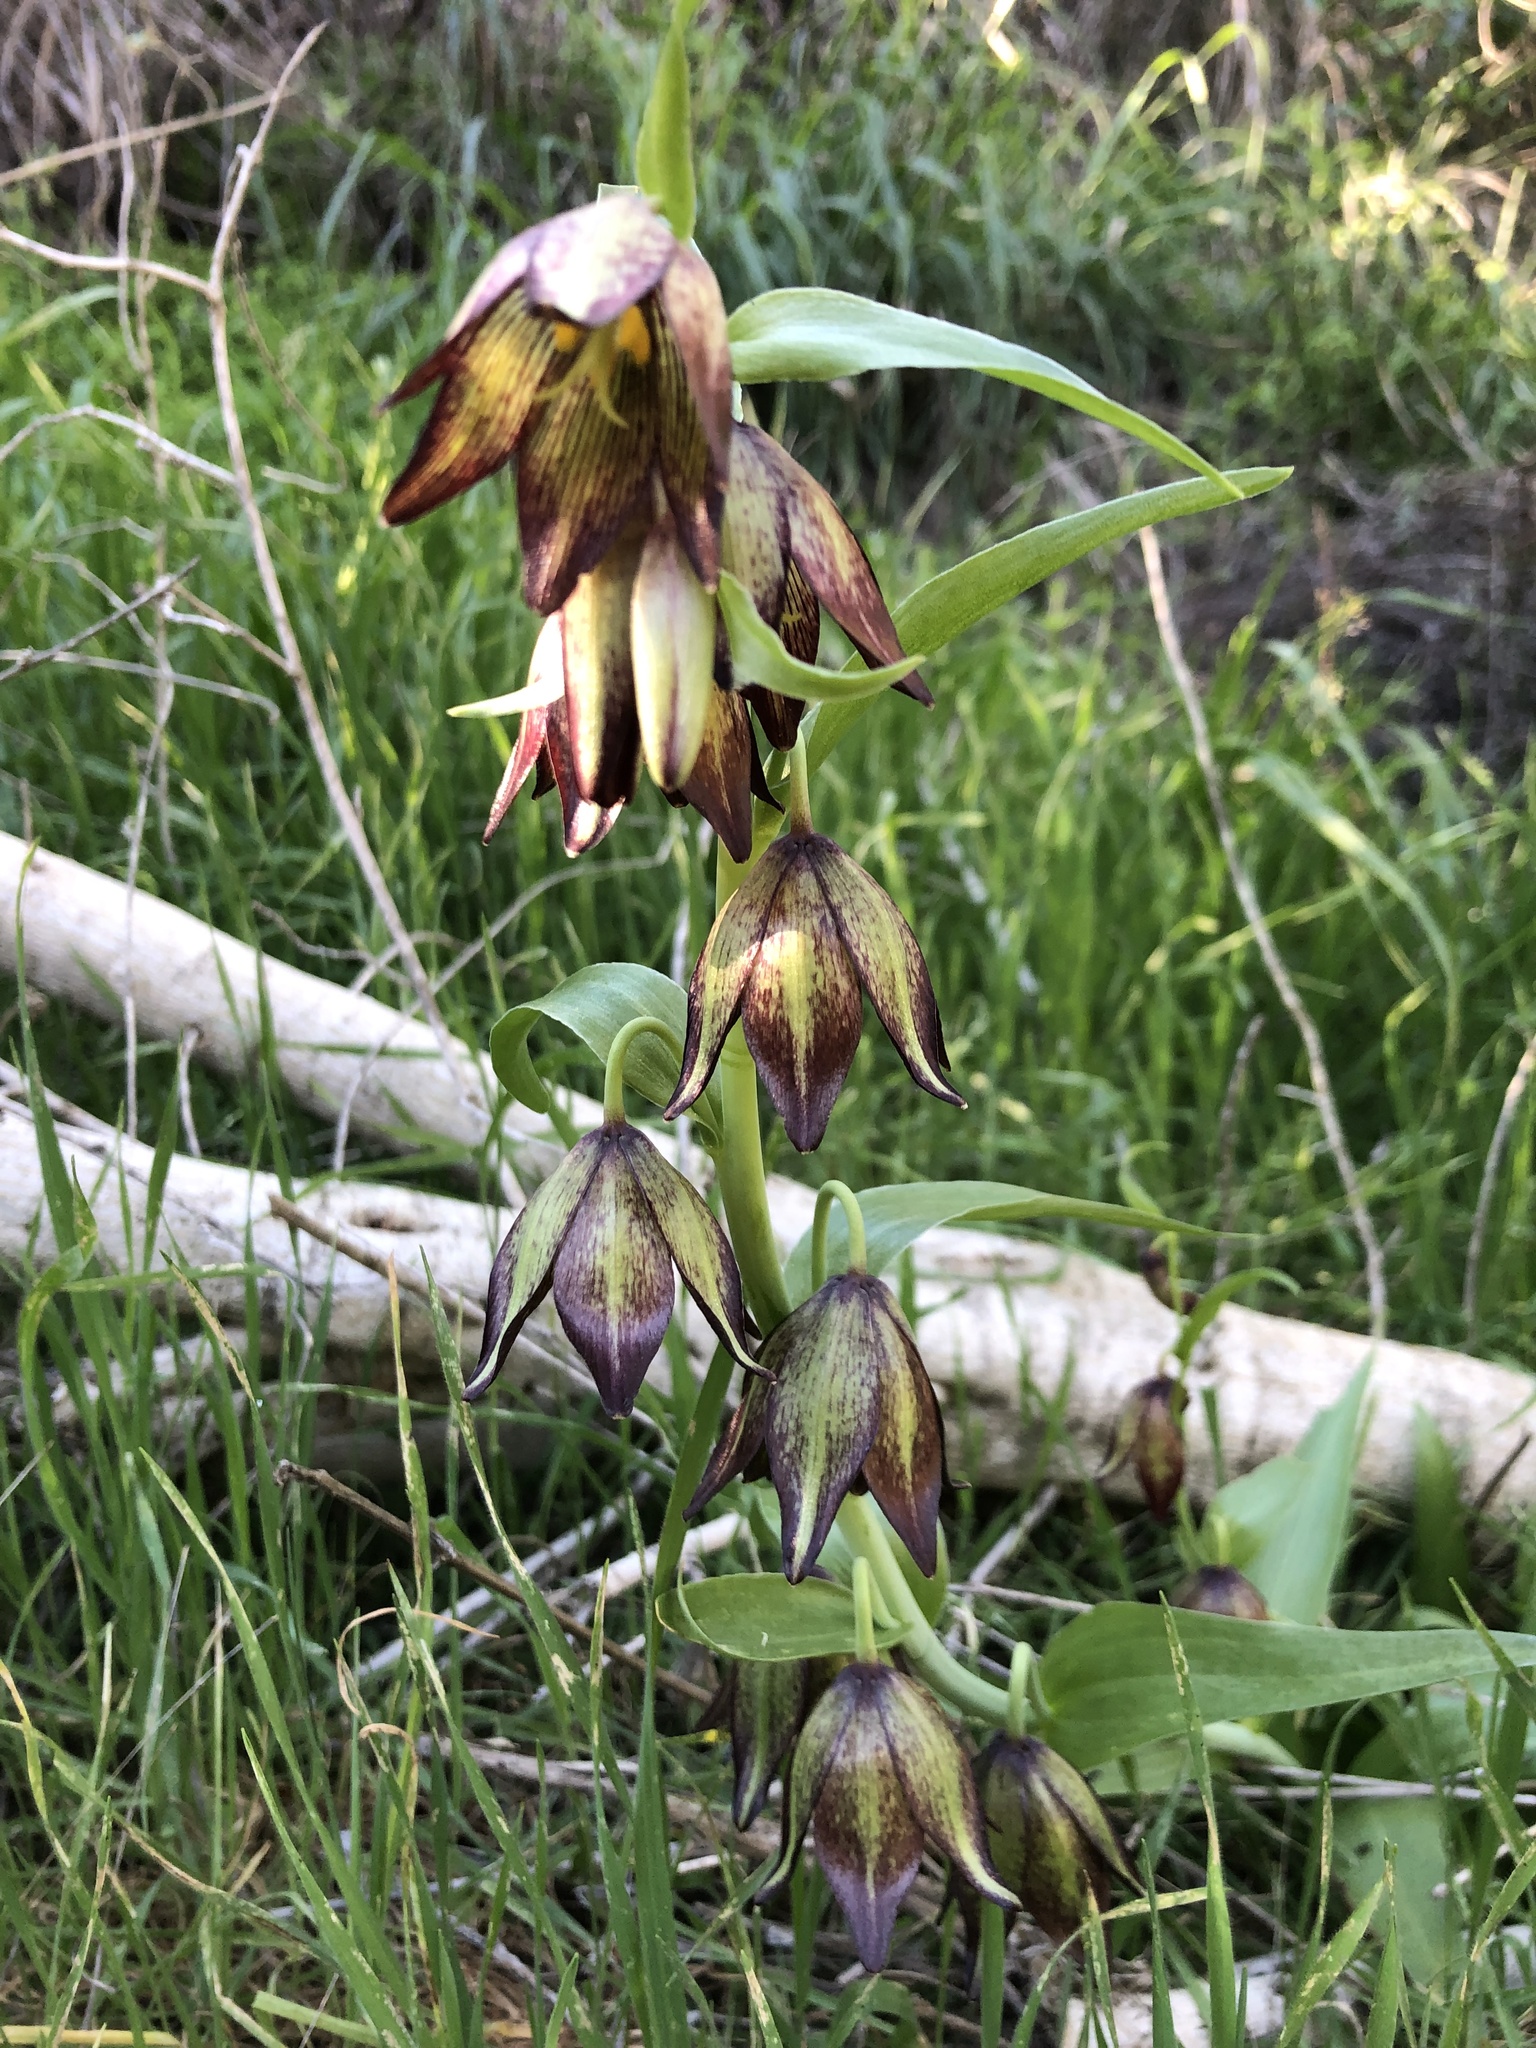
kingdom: Plantae
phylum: Tracheophyta
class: Liliopsida
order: Liliales
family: Liliaceae
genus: Fritillaria
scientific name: Fritillaria biflora
